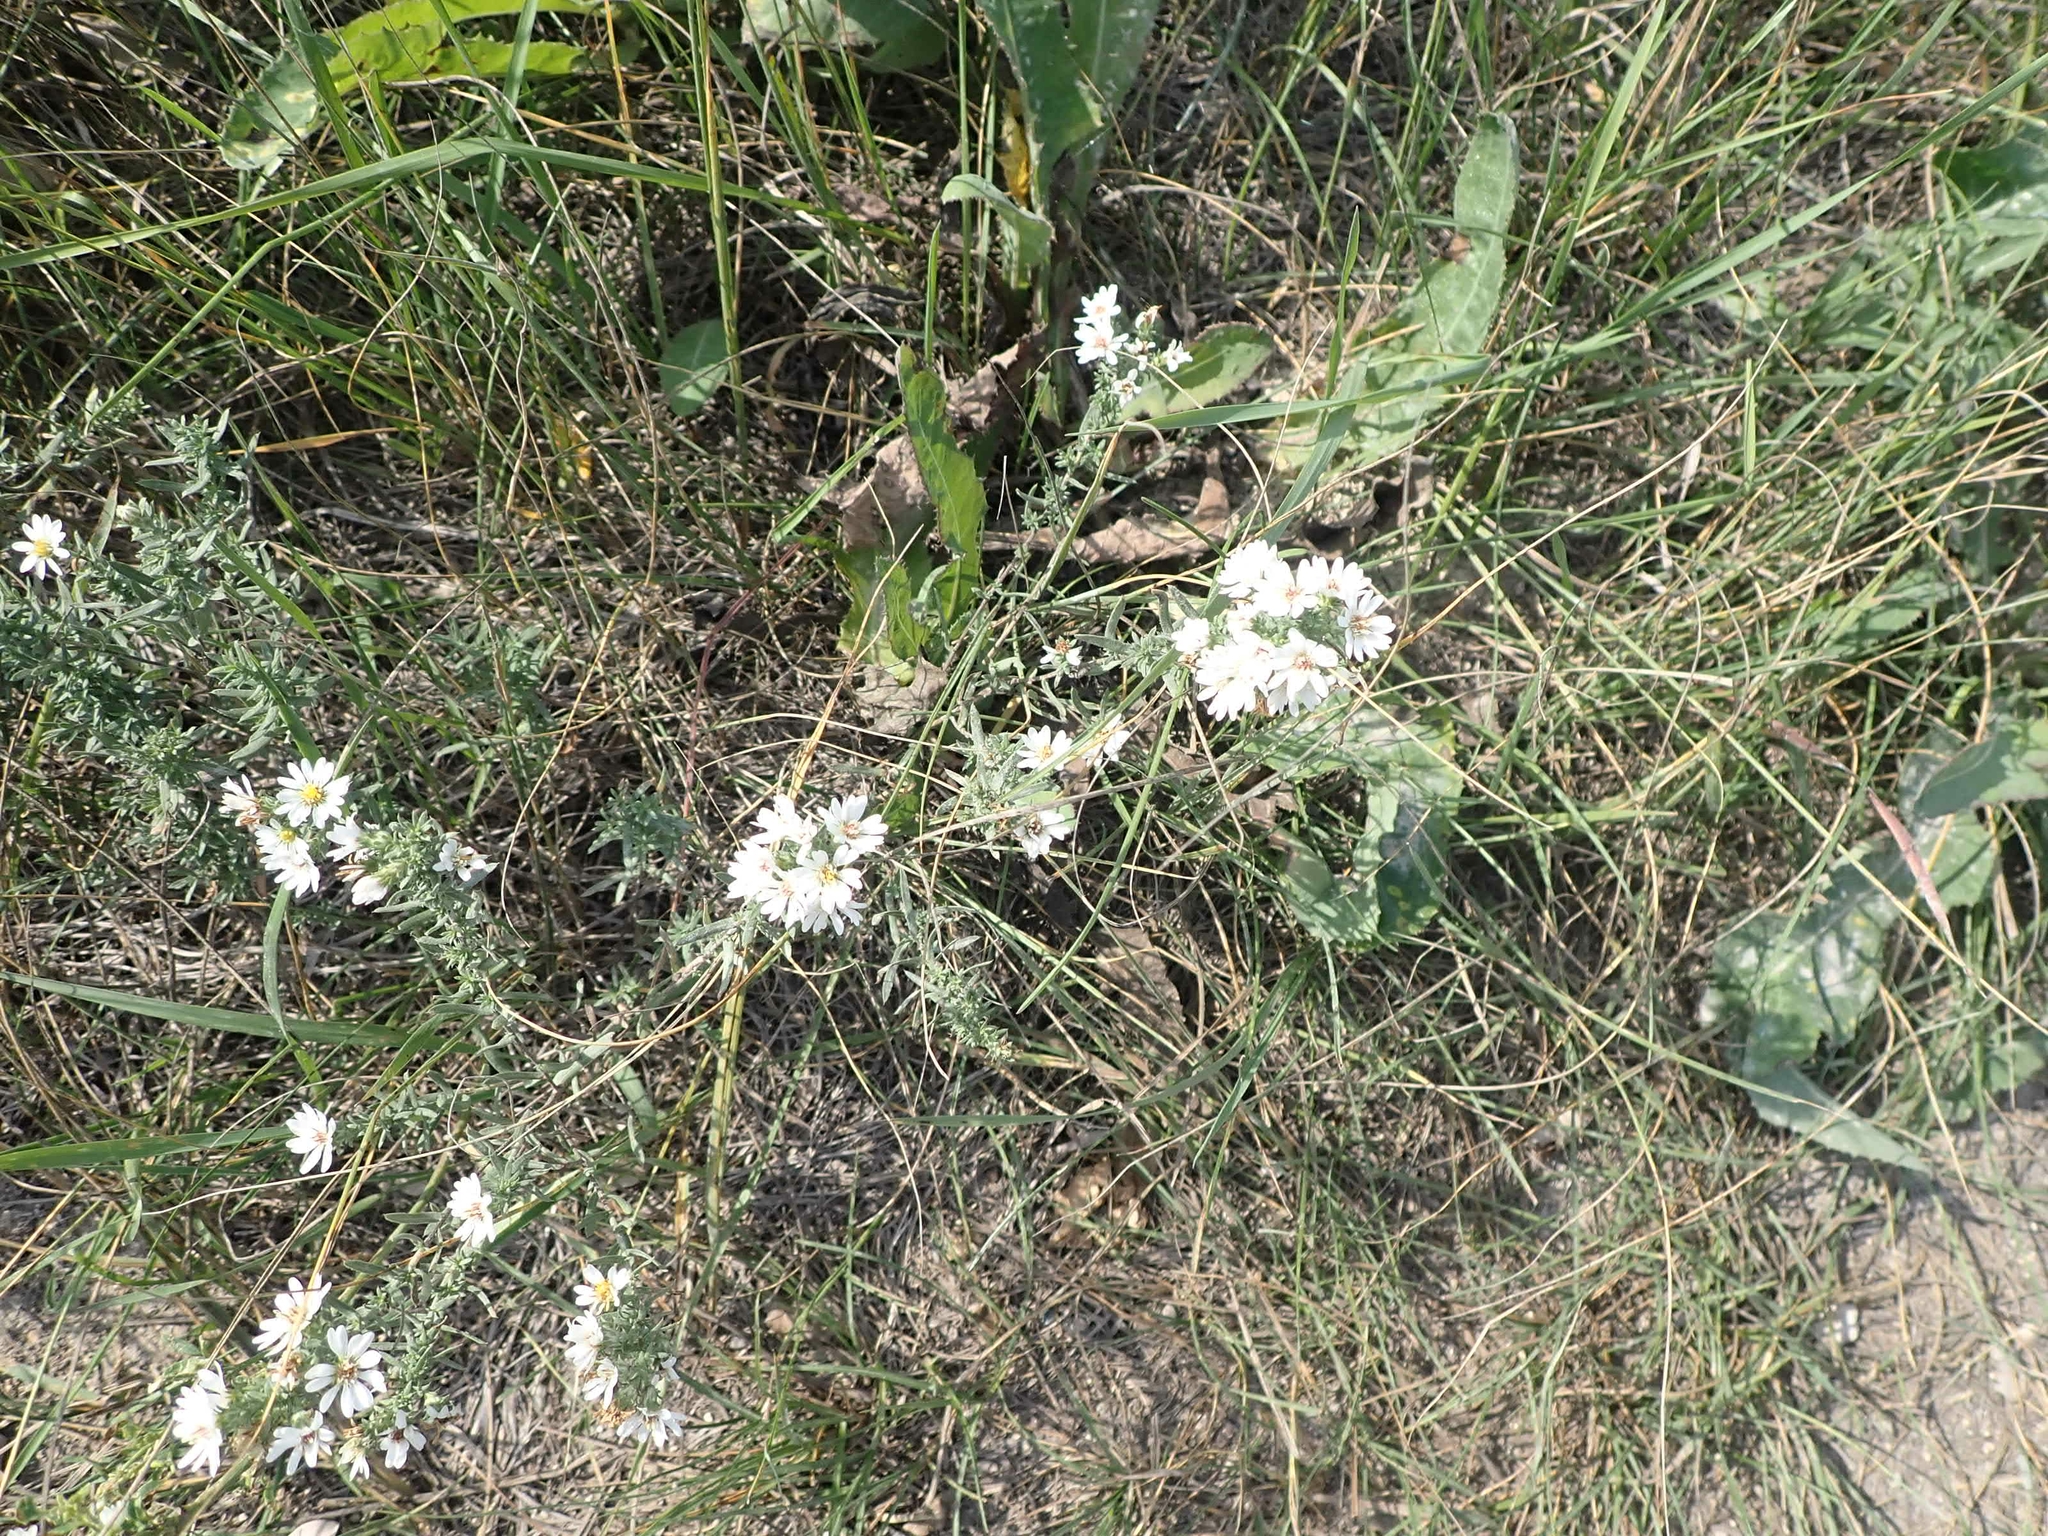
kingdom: Plantae
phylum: Tracheophyta
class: Magnoliopsida
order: Asterales
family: Asteraceae
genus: Symphyotrichum
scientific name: Symphyotrichum ericoides
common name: Heath aster
